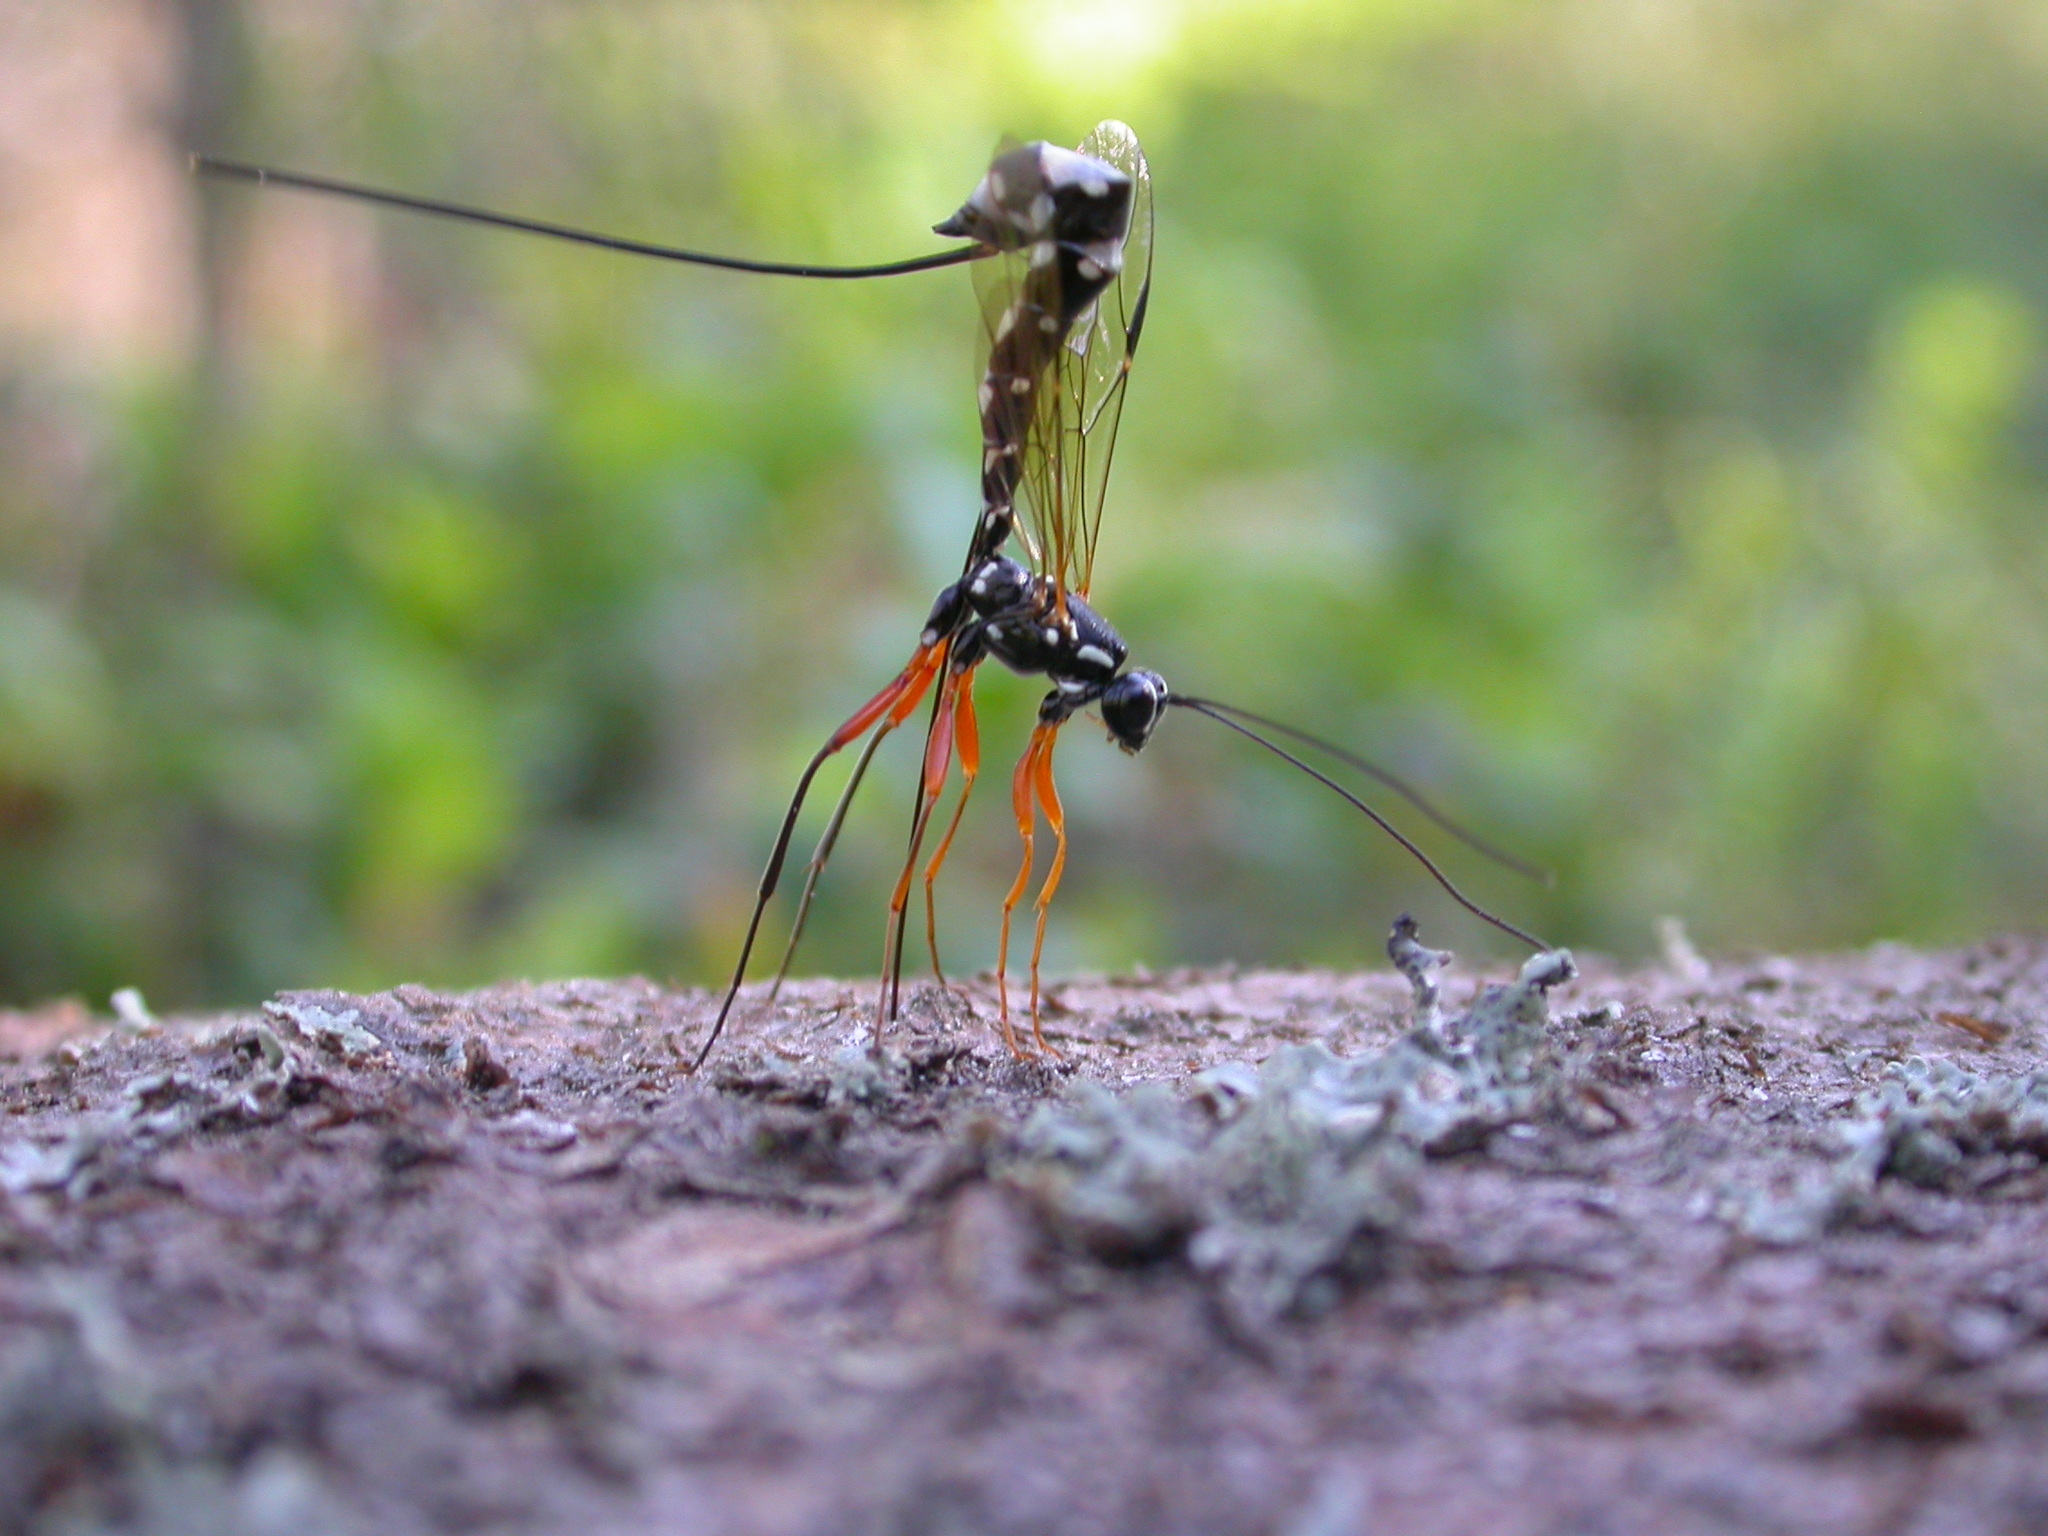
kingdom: Animalia
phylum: Arthropoda
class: Insecta
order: Hymenoptera
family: Ichneumonidae
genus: Rhyssa
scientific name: Rhyssa persuasoria
